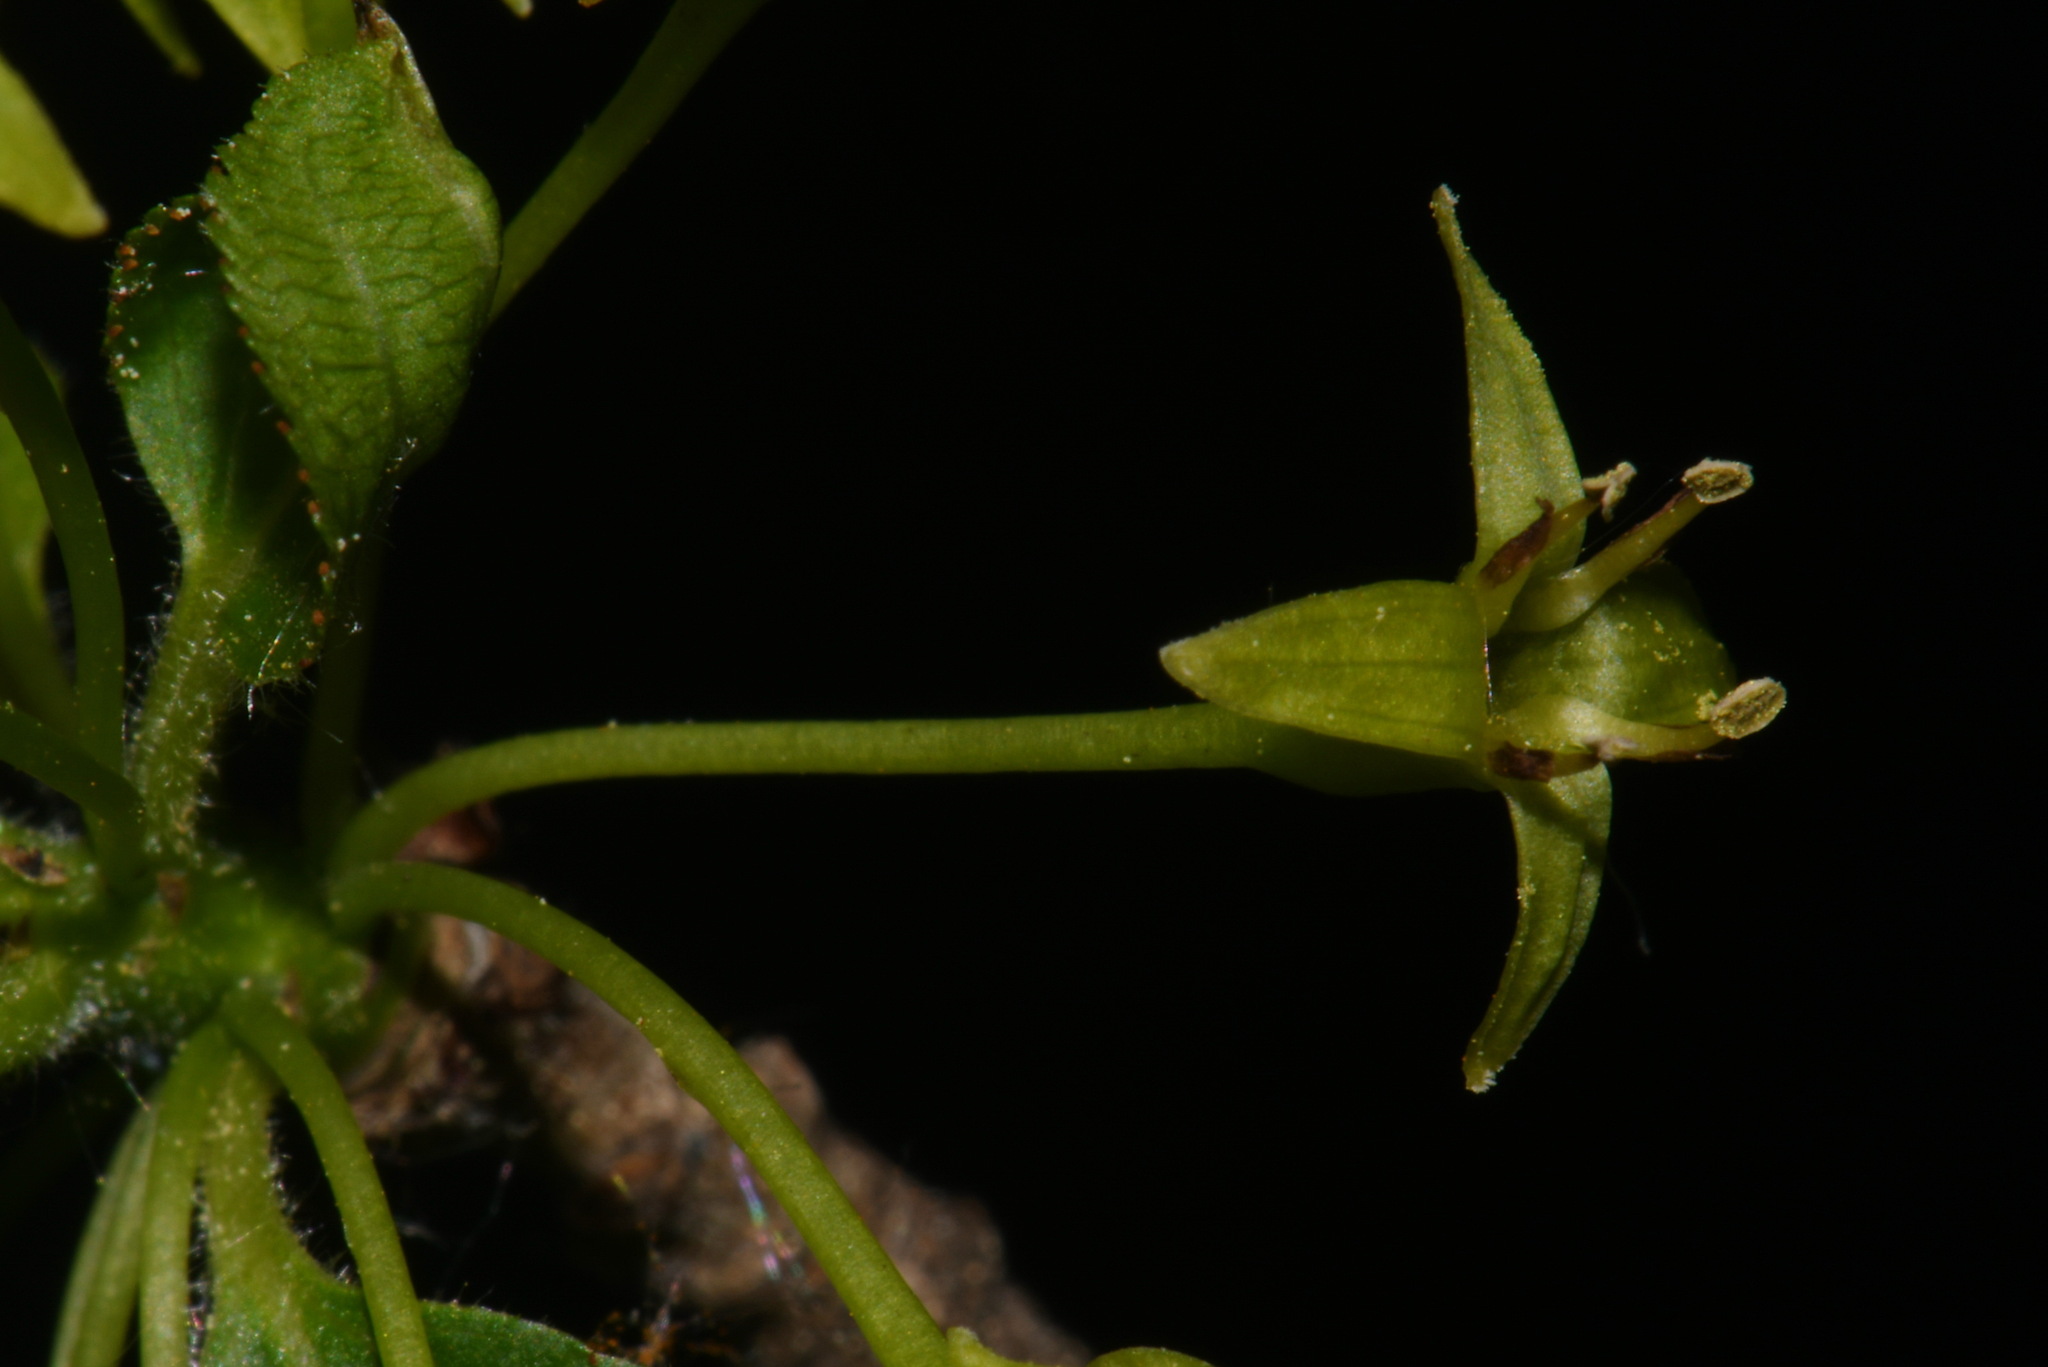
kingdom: Plantae
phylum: Tracheophyta
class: Magnoliopsida
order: Rosales
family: Rhamnaceae
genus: Rhamnus
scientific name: Rhamnus cathartica
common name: Common buckthorn
